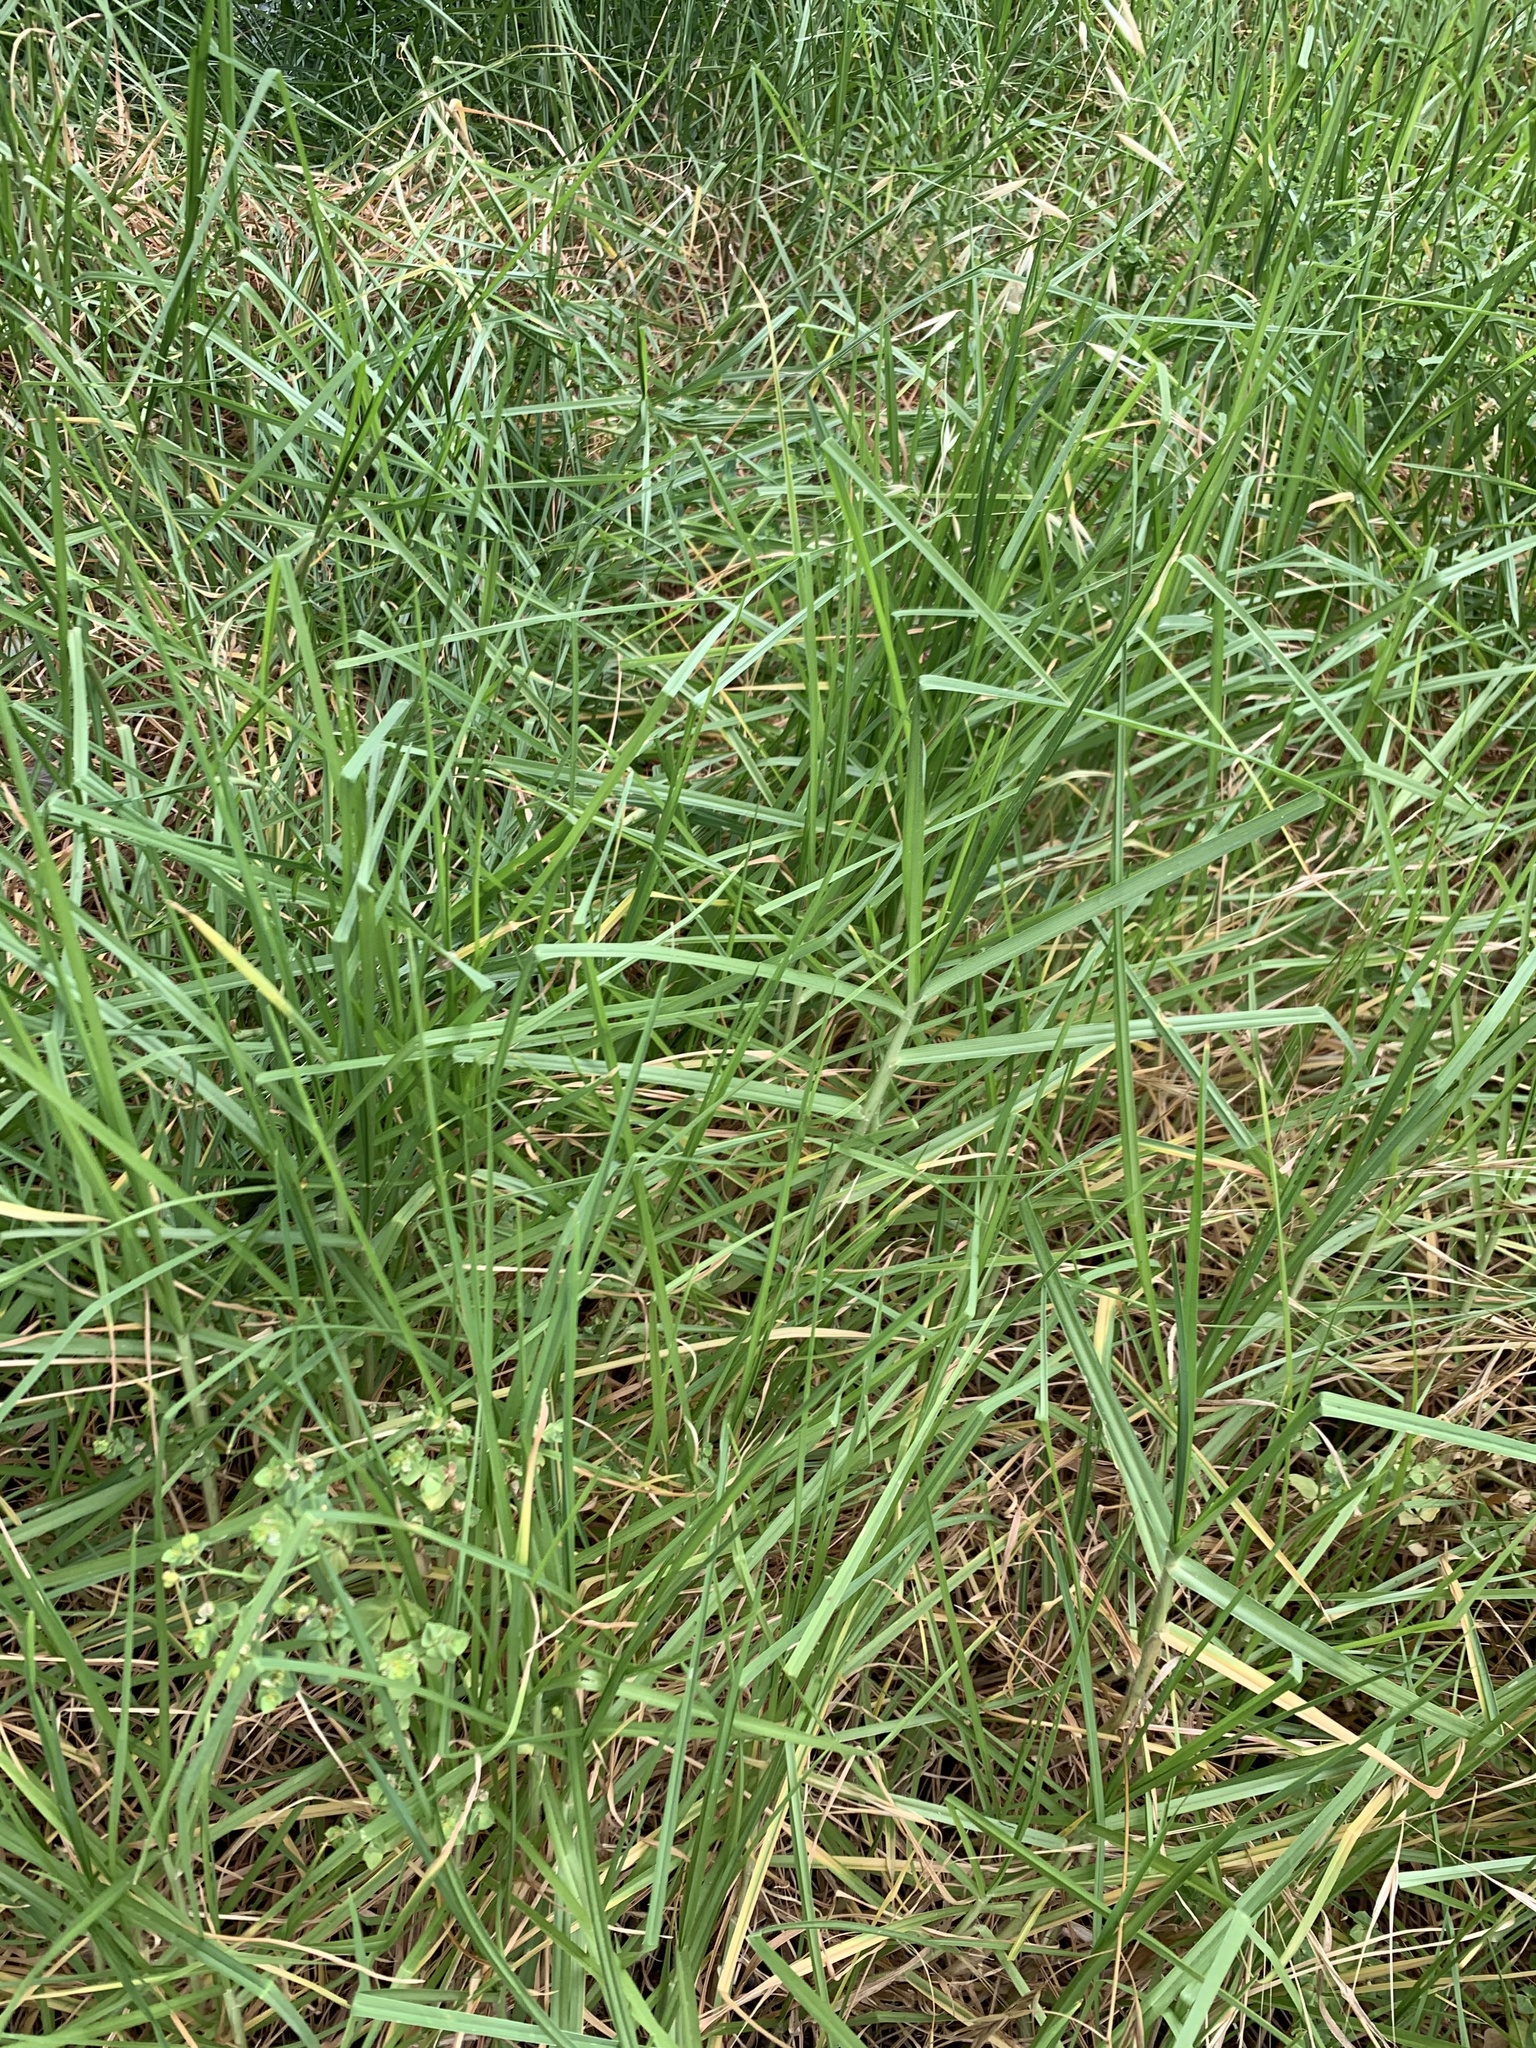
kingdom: Plantae
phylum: Tracheophyta
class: Liliopsida
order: Poales
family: Poaceae
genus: Cenchrus
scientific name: Cenchrus clandestinus
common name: Kikuyugrass
